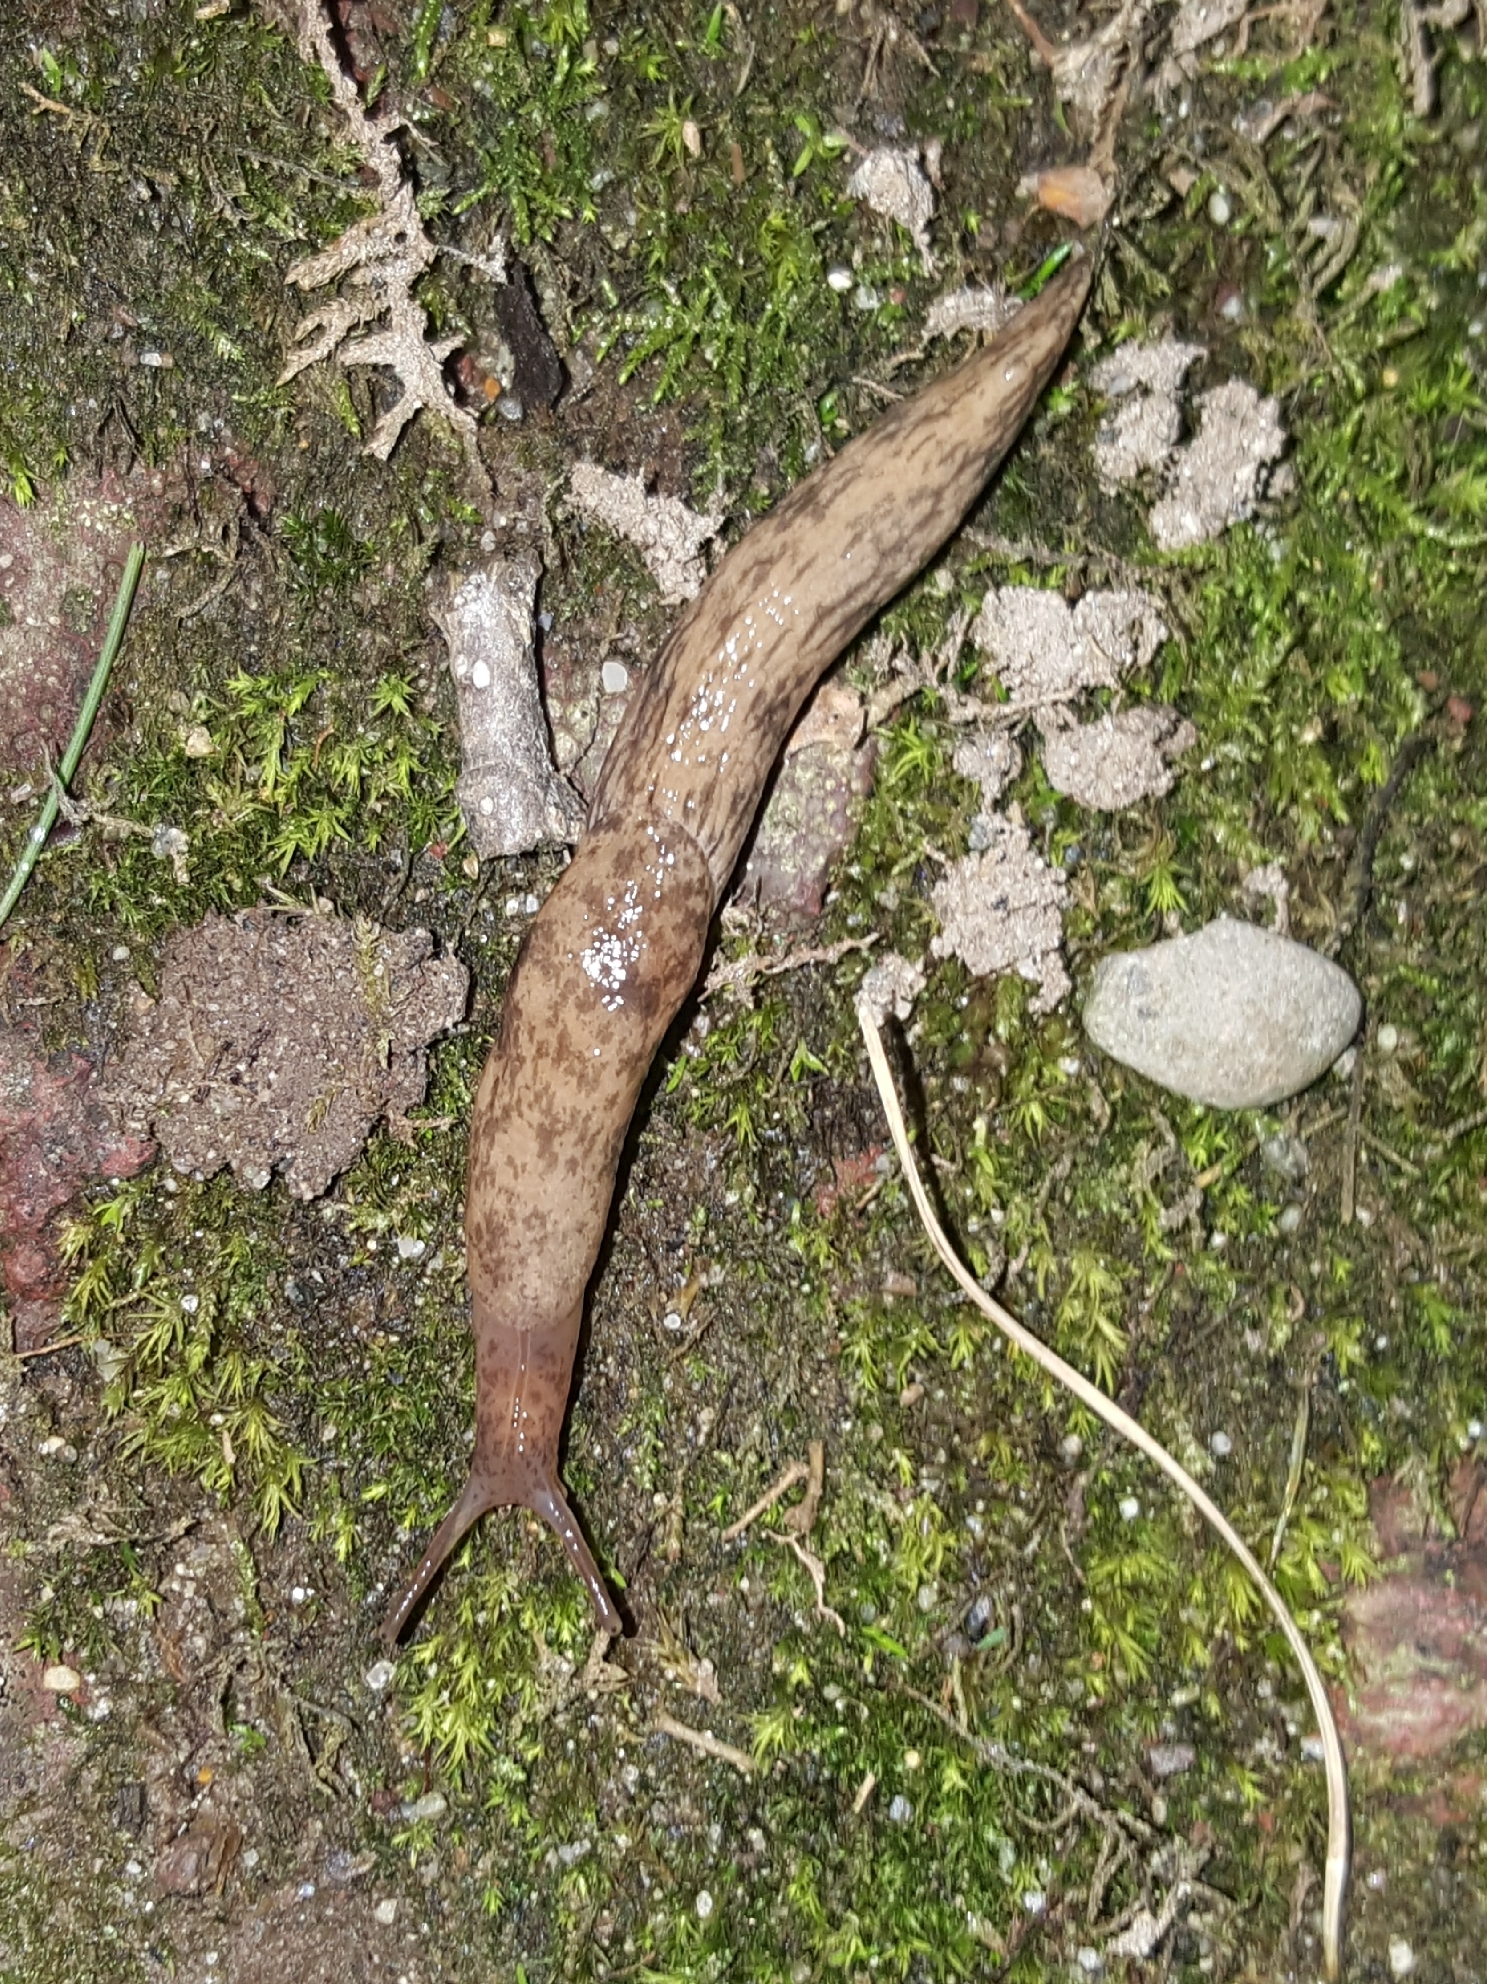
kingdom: Animalia
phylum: Mollusca
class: Gastropoda
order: Stylommatophora
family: Agriolimacidae
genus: Deroceras
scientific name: Deroceras reticulatum
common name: Gray field slug
